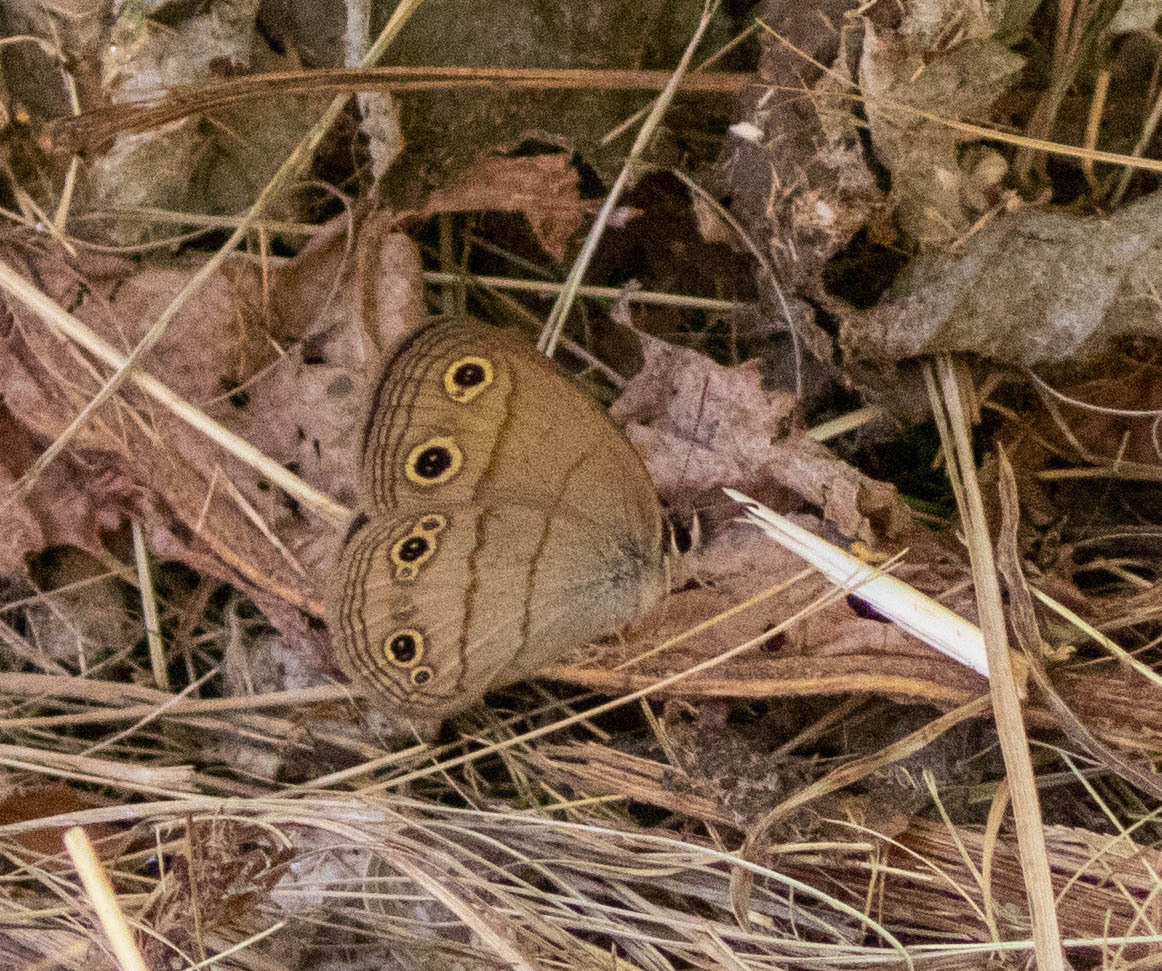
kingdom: Animalia
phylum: Arthropoda
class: Insecta
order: Lepidoptera
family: Nymphalidae
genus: Euptychia
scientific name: Euptychia cymela
